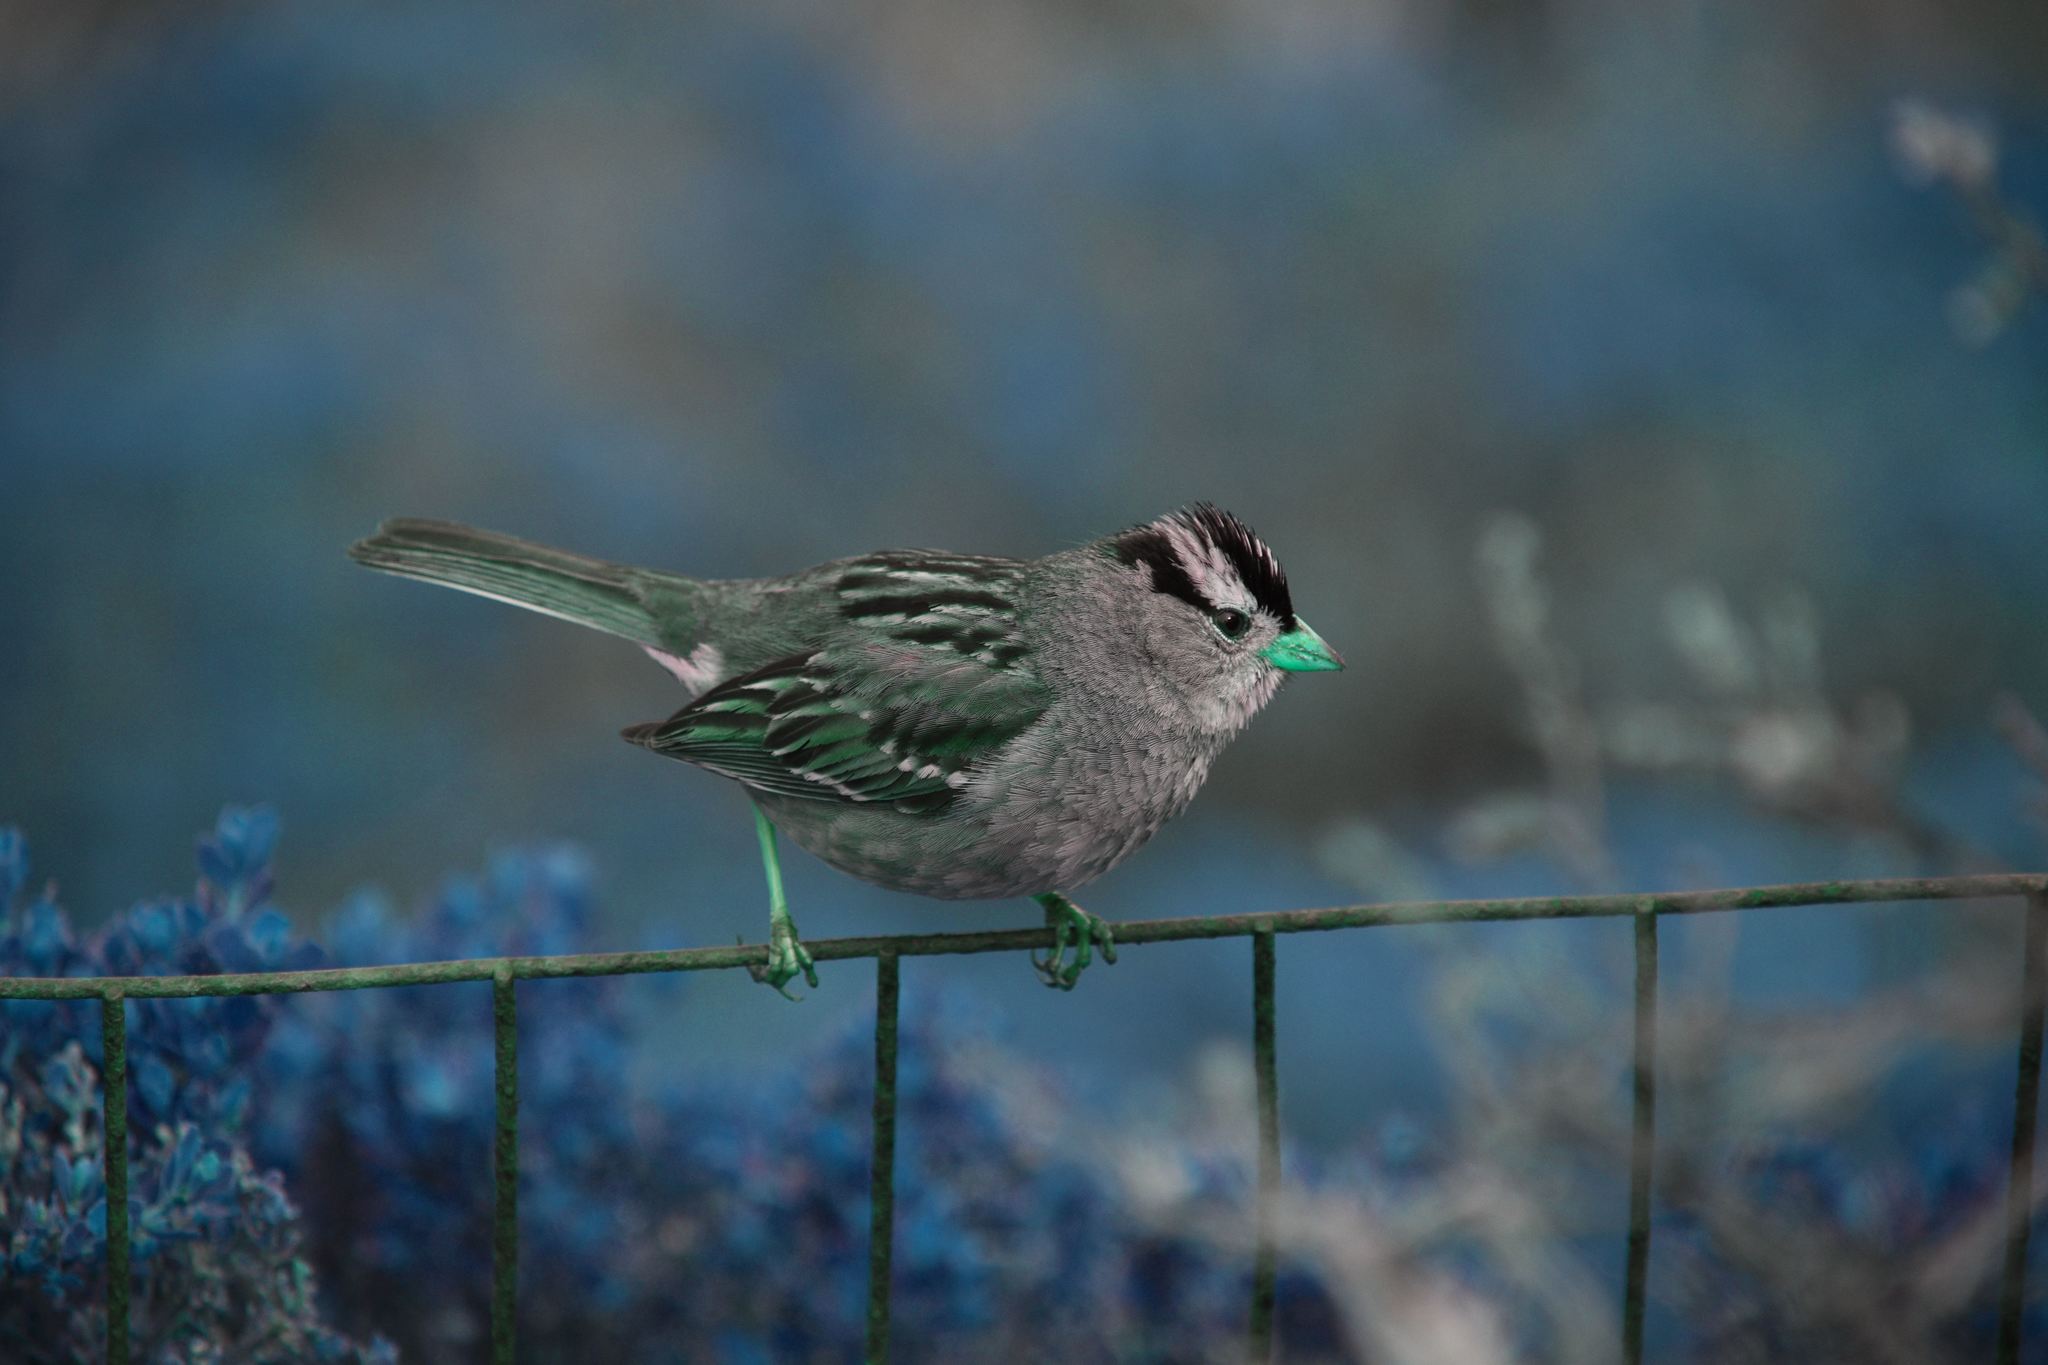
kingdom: Animalia
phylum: Chordata
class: Aves
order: Passeriformes
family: Passerellidae
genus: Zonotrichia
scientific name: Zonotrichia leucophrys
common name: White-crowned sparrow
